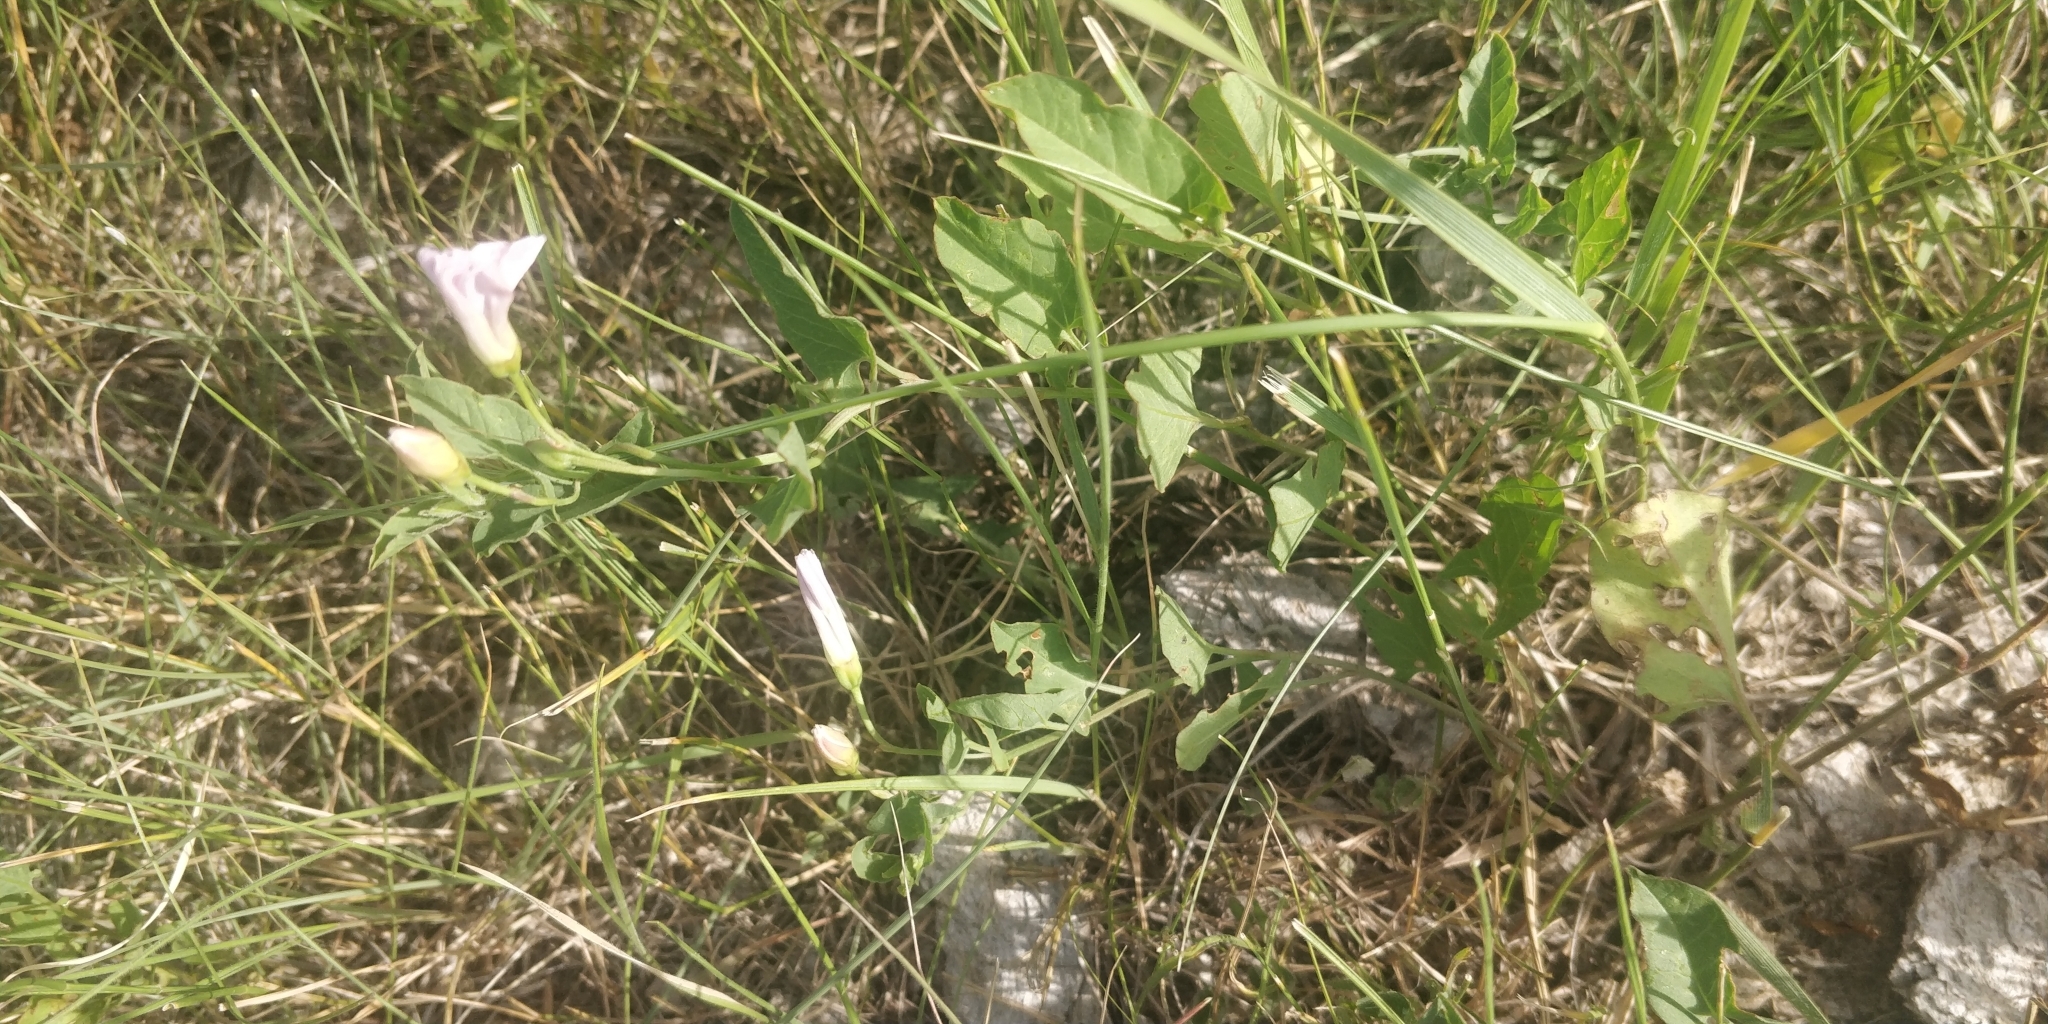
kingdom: Plantae
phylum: Tracheophyta
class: Magnoliopsida
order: Solanales
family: Convolvulaceae
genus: Convolvulus
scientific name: Convolvulus arvensis
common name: Field bindweed
